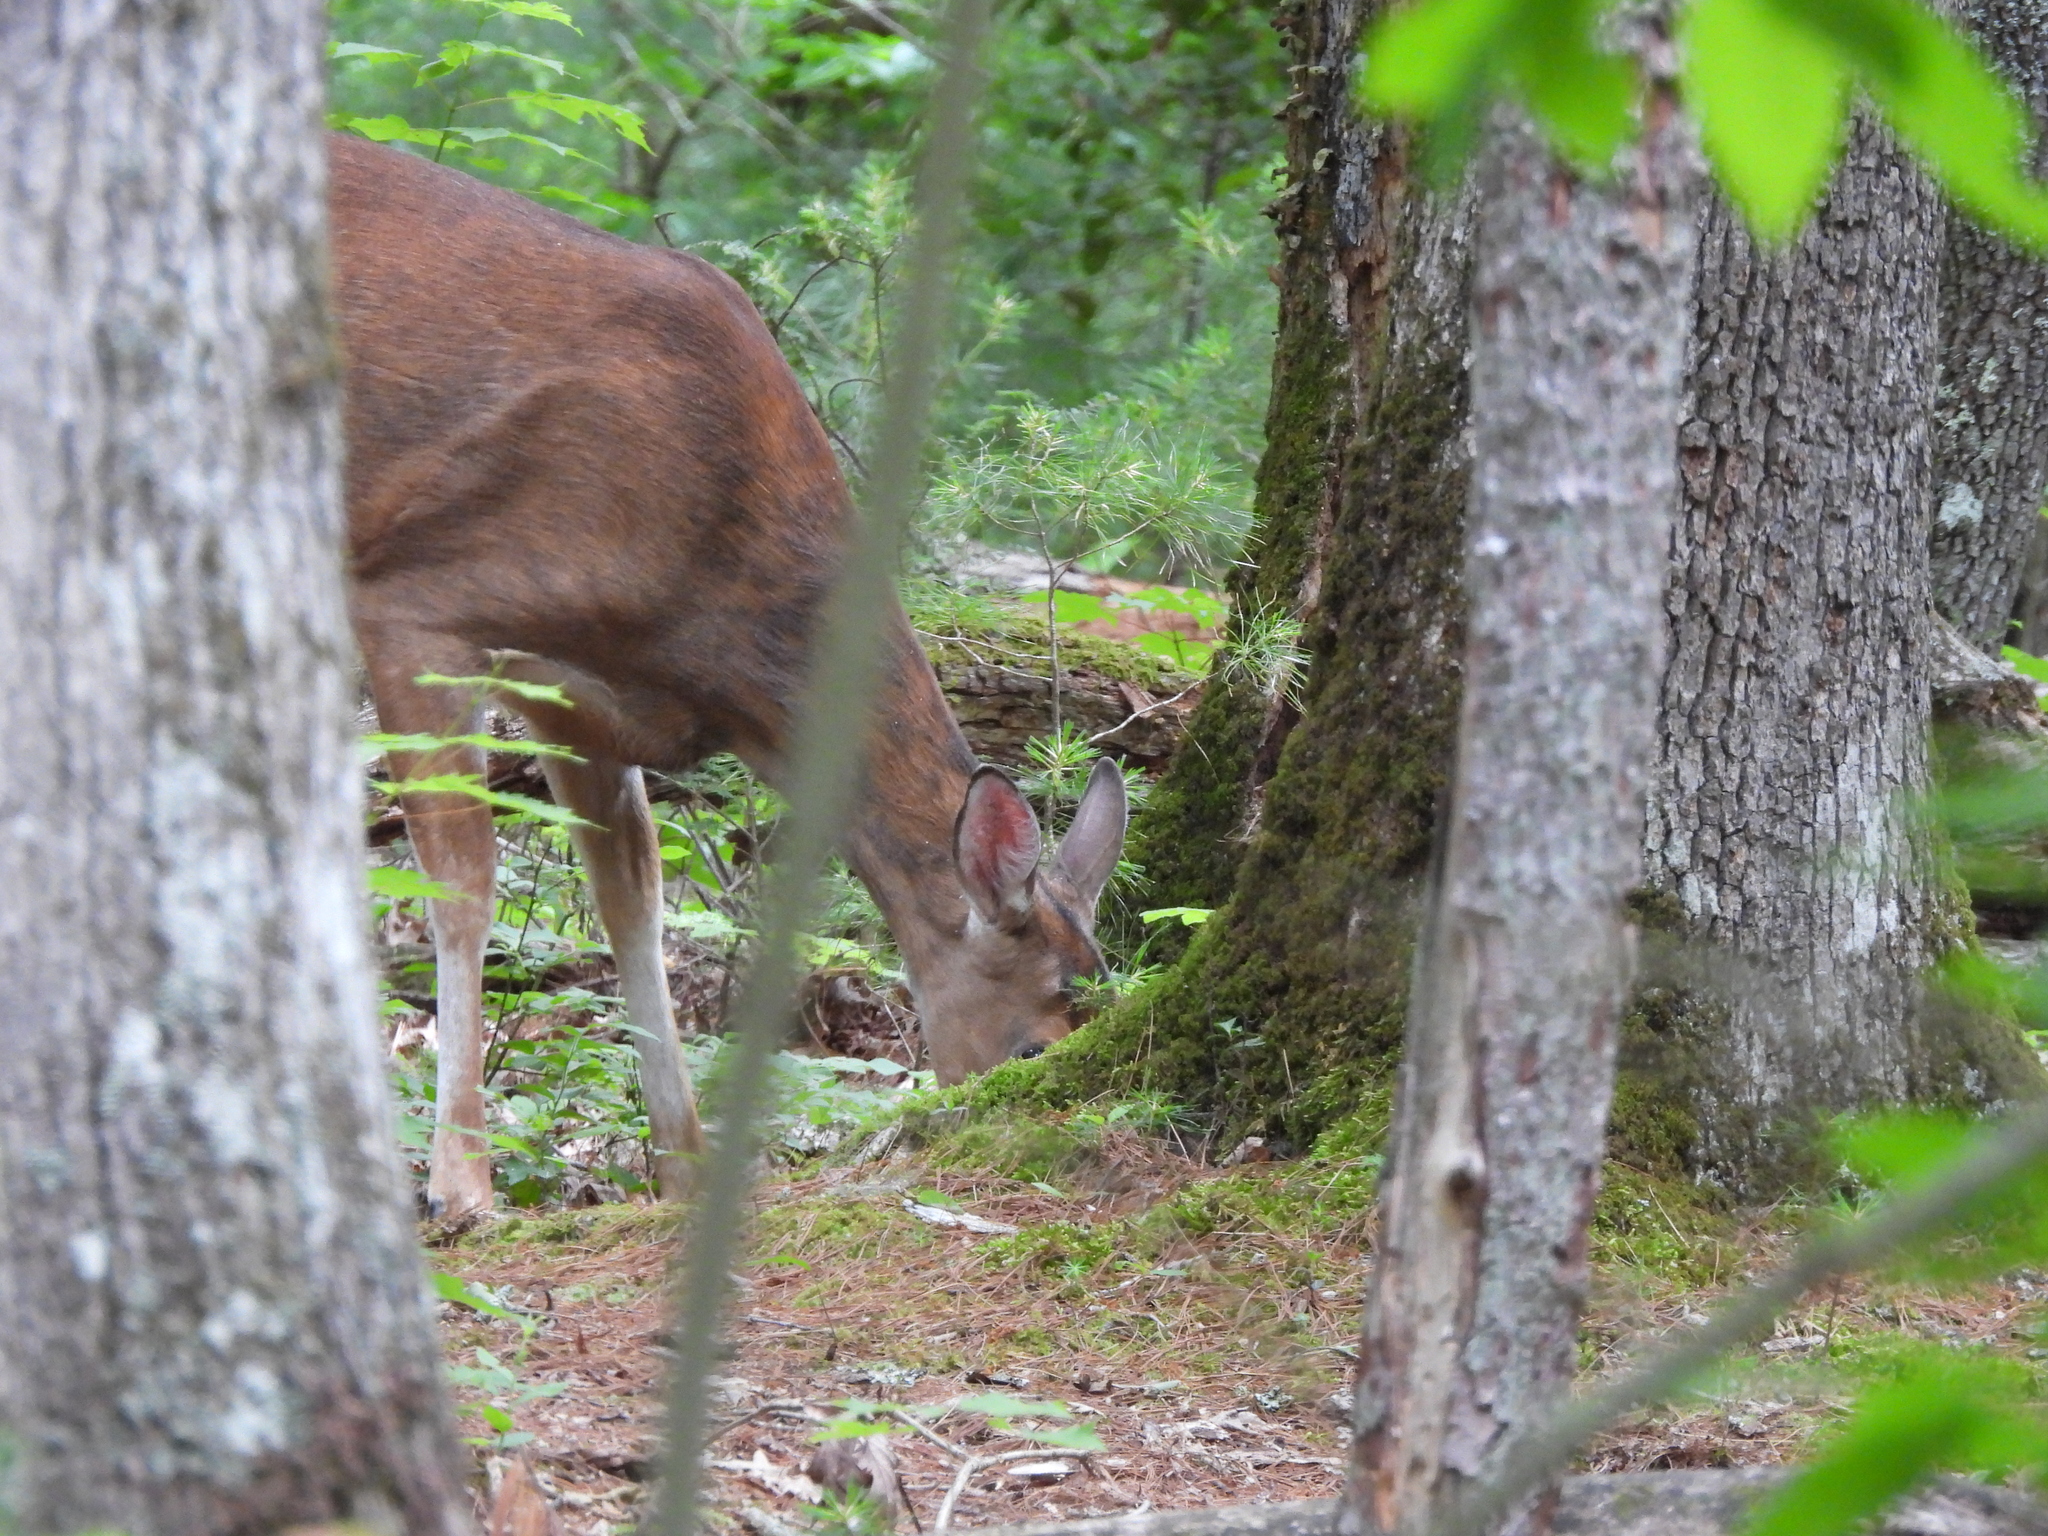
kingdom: Animalia
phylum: Chordata
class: Mammalia
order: Artiodactyla
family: Cervidae
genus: Odocoileus
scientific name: Odocoileus virginianus
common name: White-tailed deer
